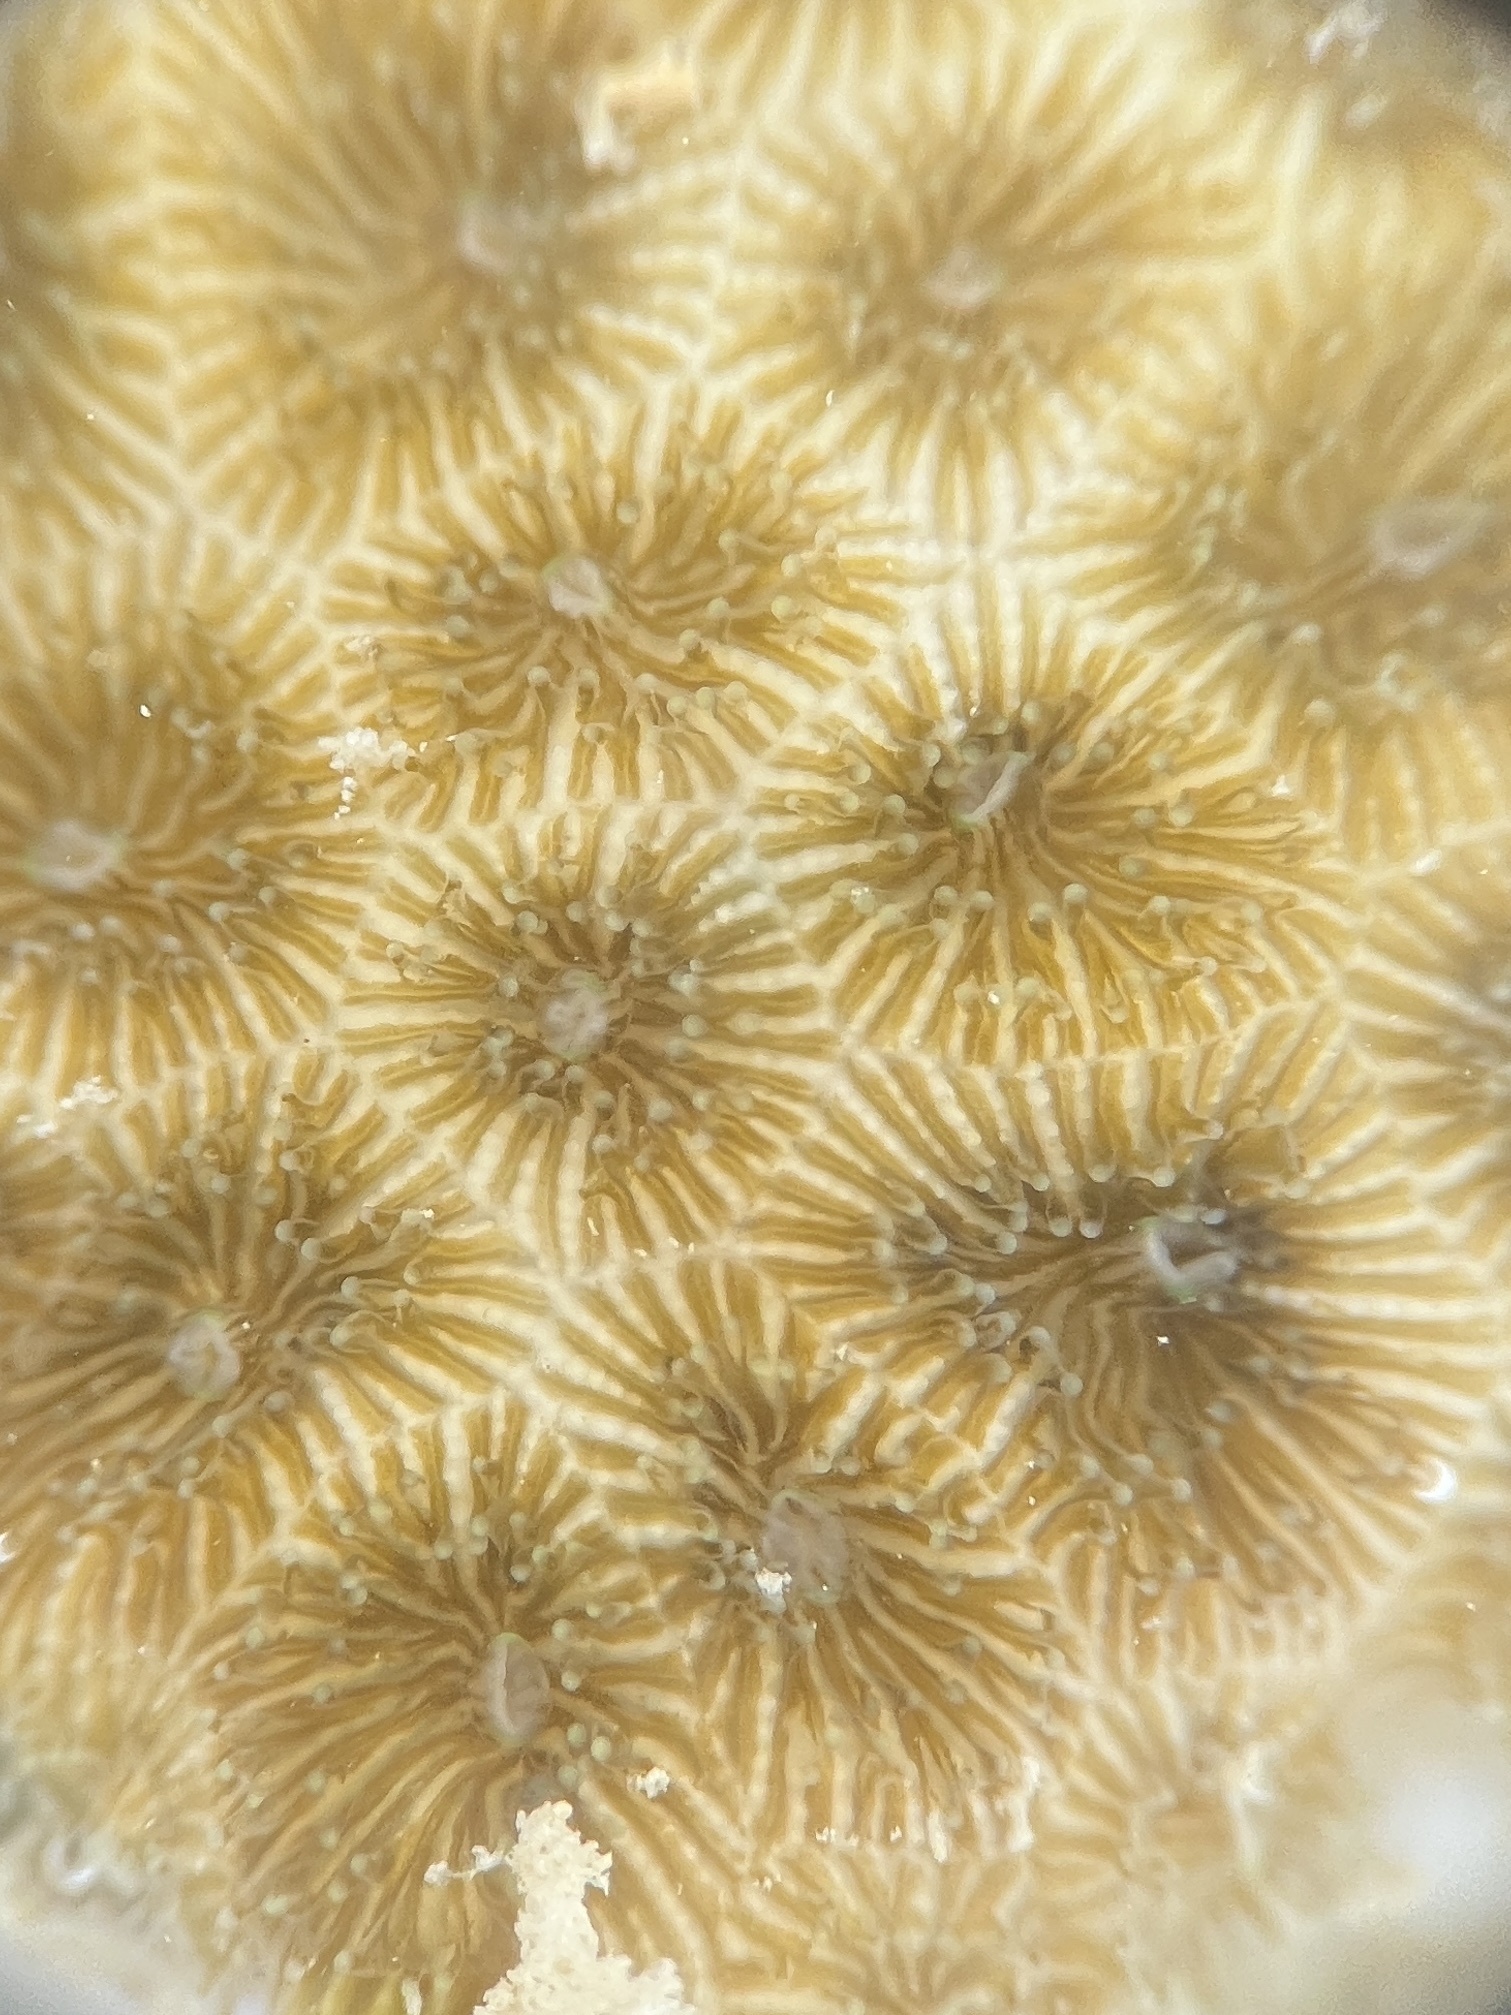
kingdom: Animalia
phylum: Cnidaria
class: Anthozoa
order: Scleractinia
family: Rhizangiidae
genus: Siderastrea
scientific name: Siderastrea radians
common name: Lesser starlet coral
